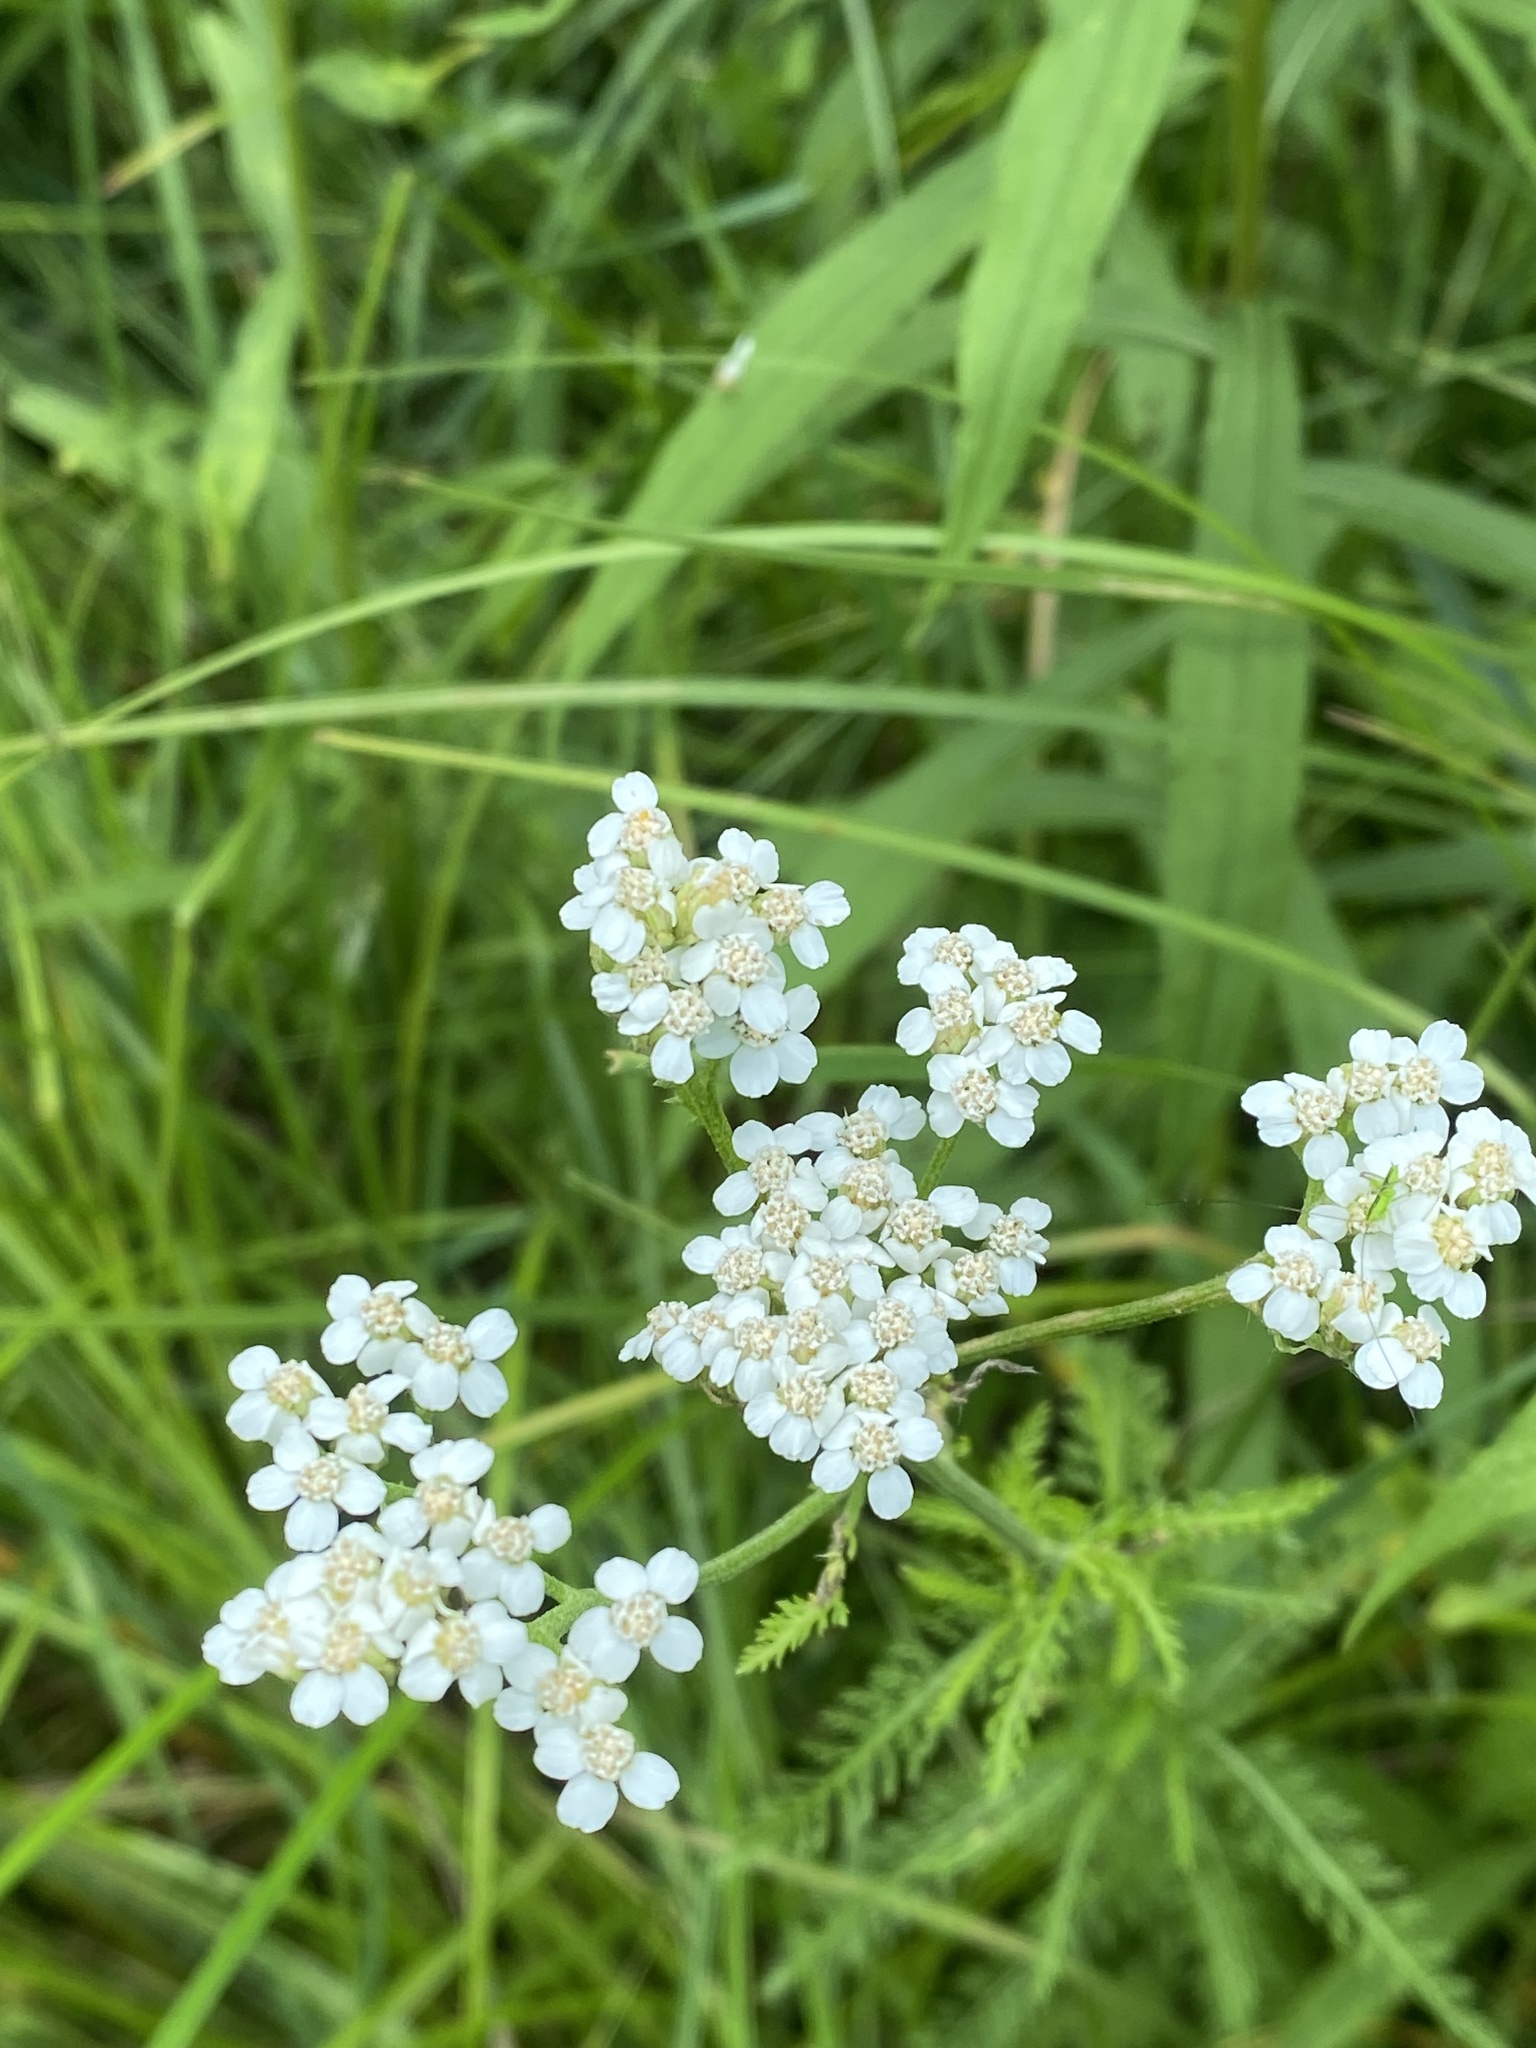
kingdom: Plantae
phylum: Tracheophyta
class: Magnoliopsida
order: Asterales
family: Asteraceae
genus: Achillea
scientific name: Achillea millefolium
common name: Yarrow
